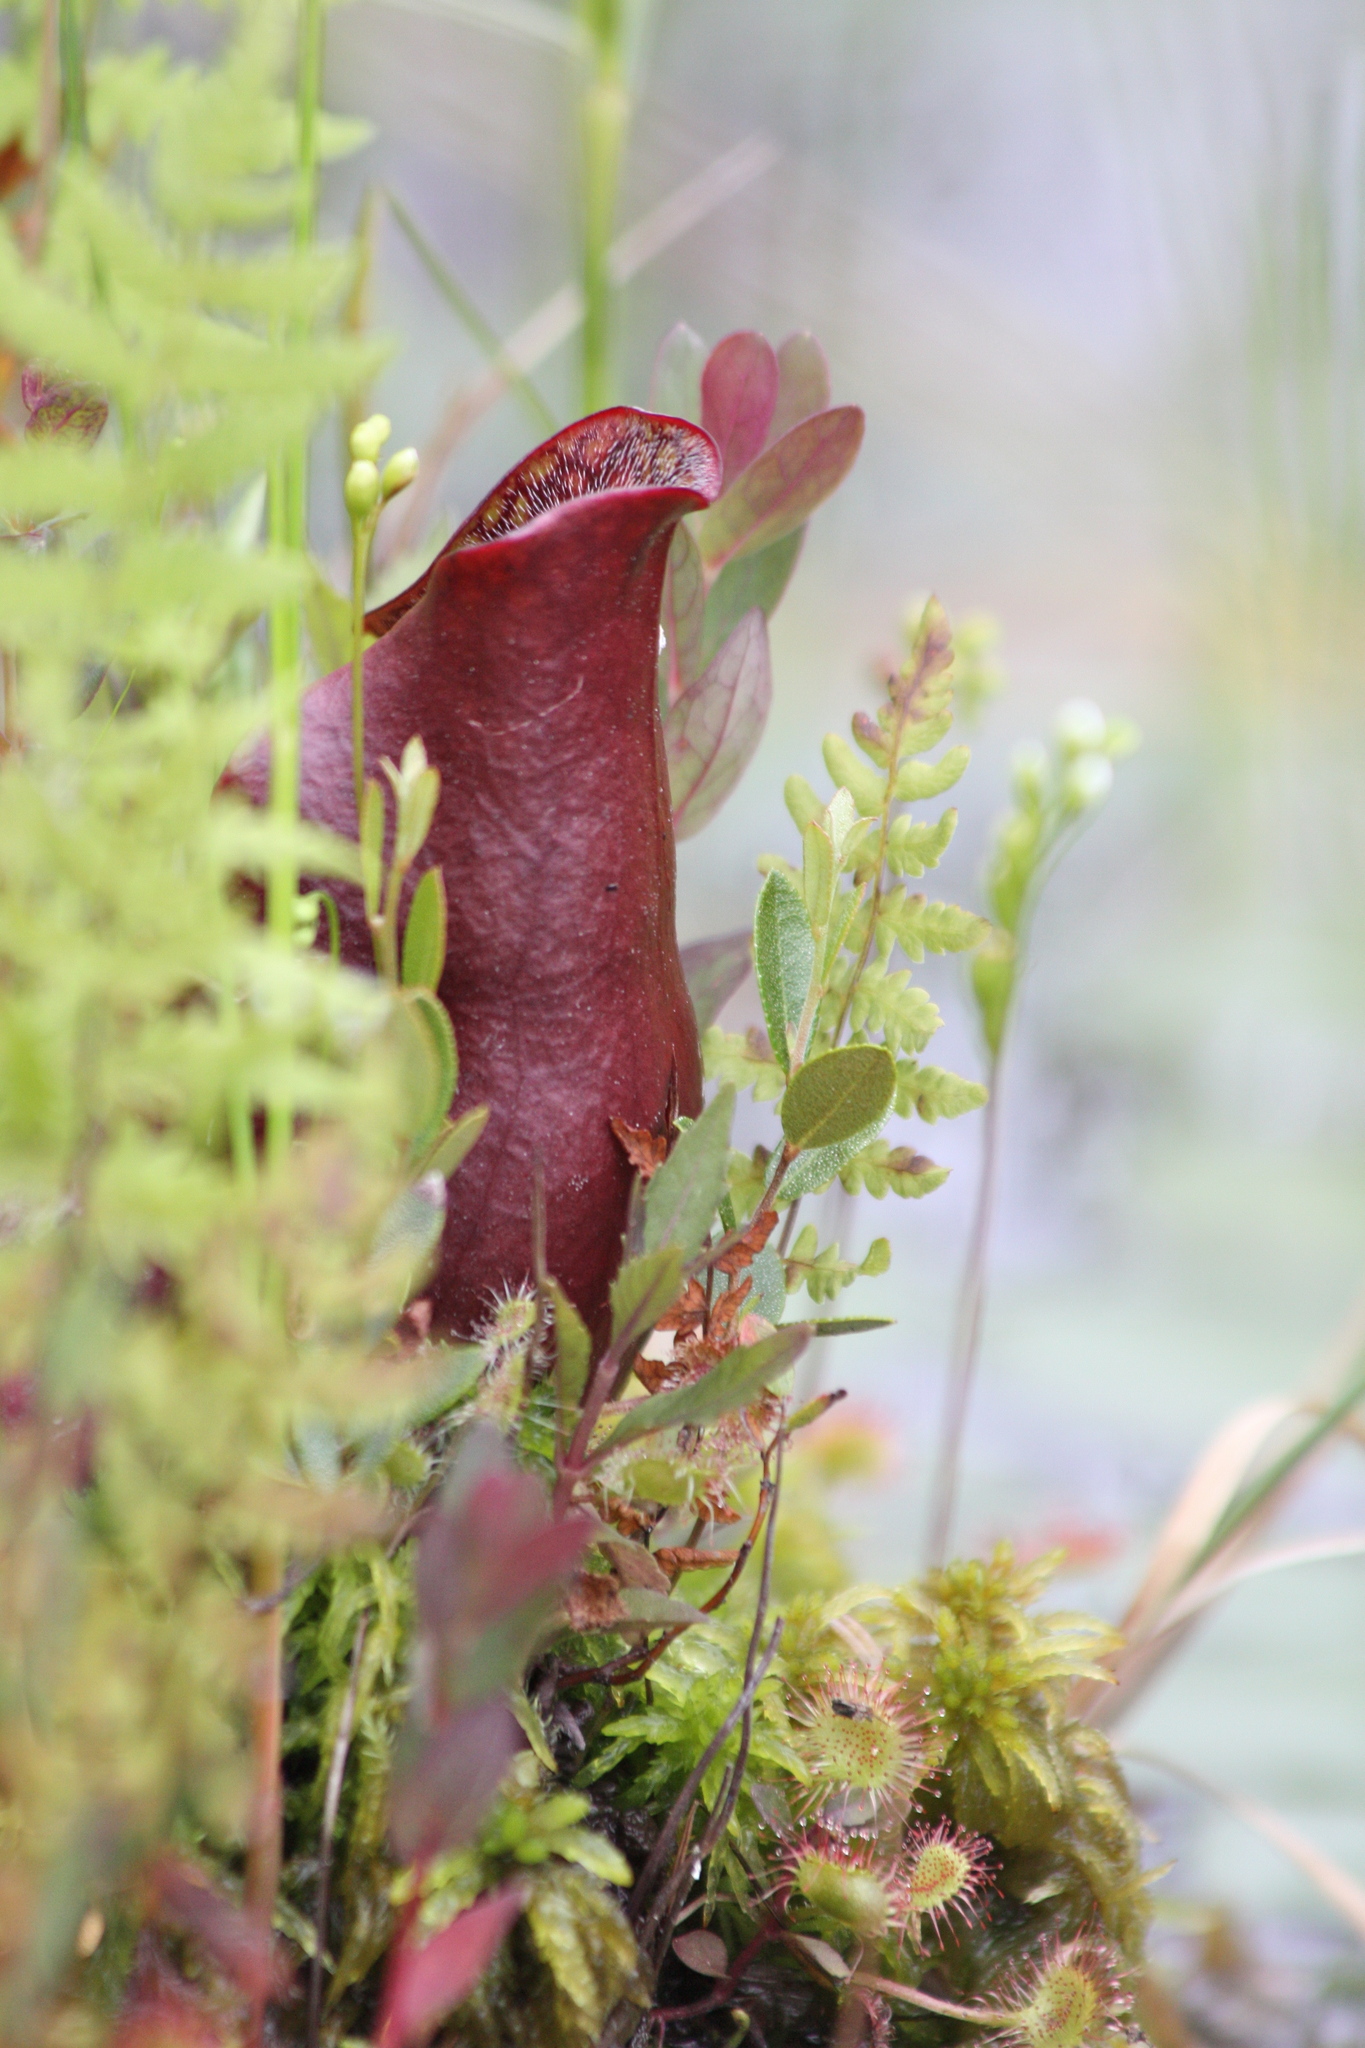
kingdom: Plantae
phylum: Tracheophyta
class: Magnoliopsida
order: Ericales
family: Sarraceniaceae
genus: Sarracenia
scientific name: Sarracenia purpurea
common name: Pitcherplant
